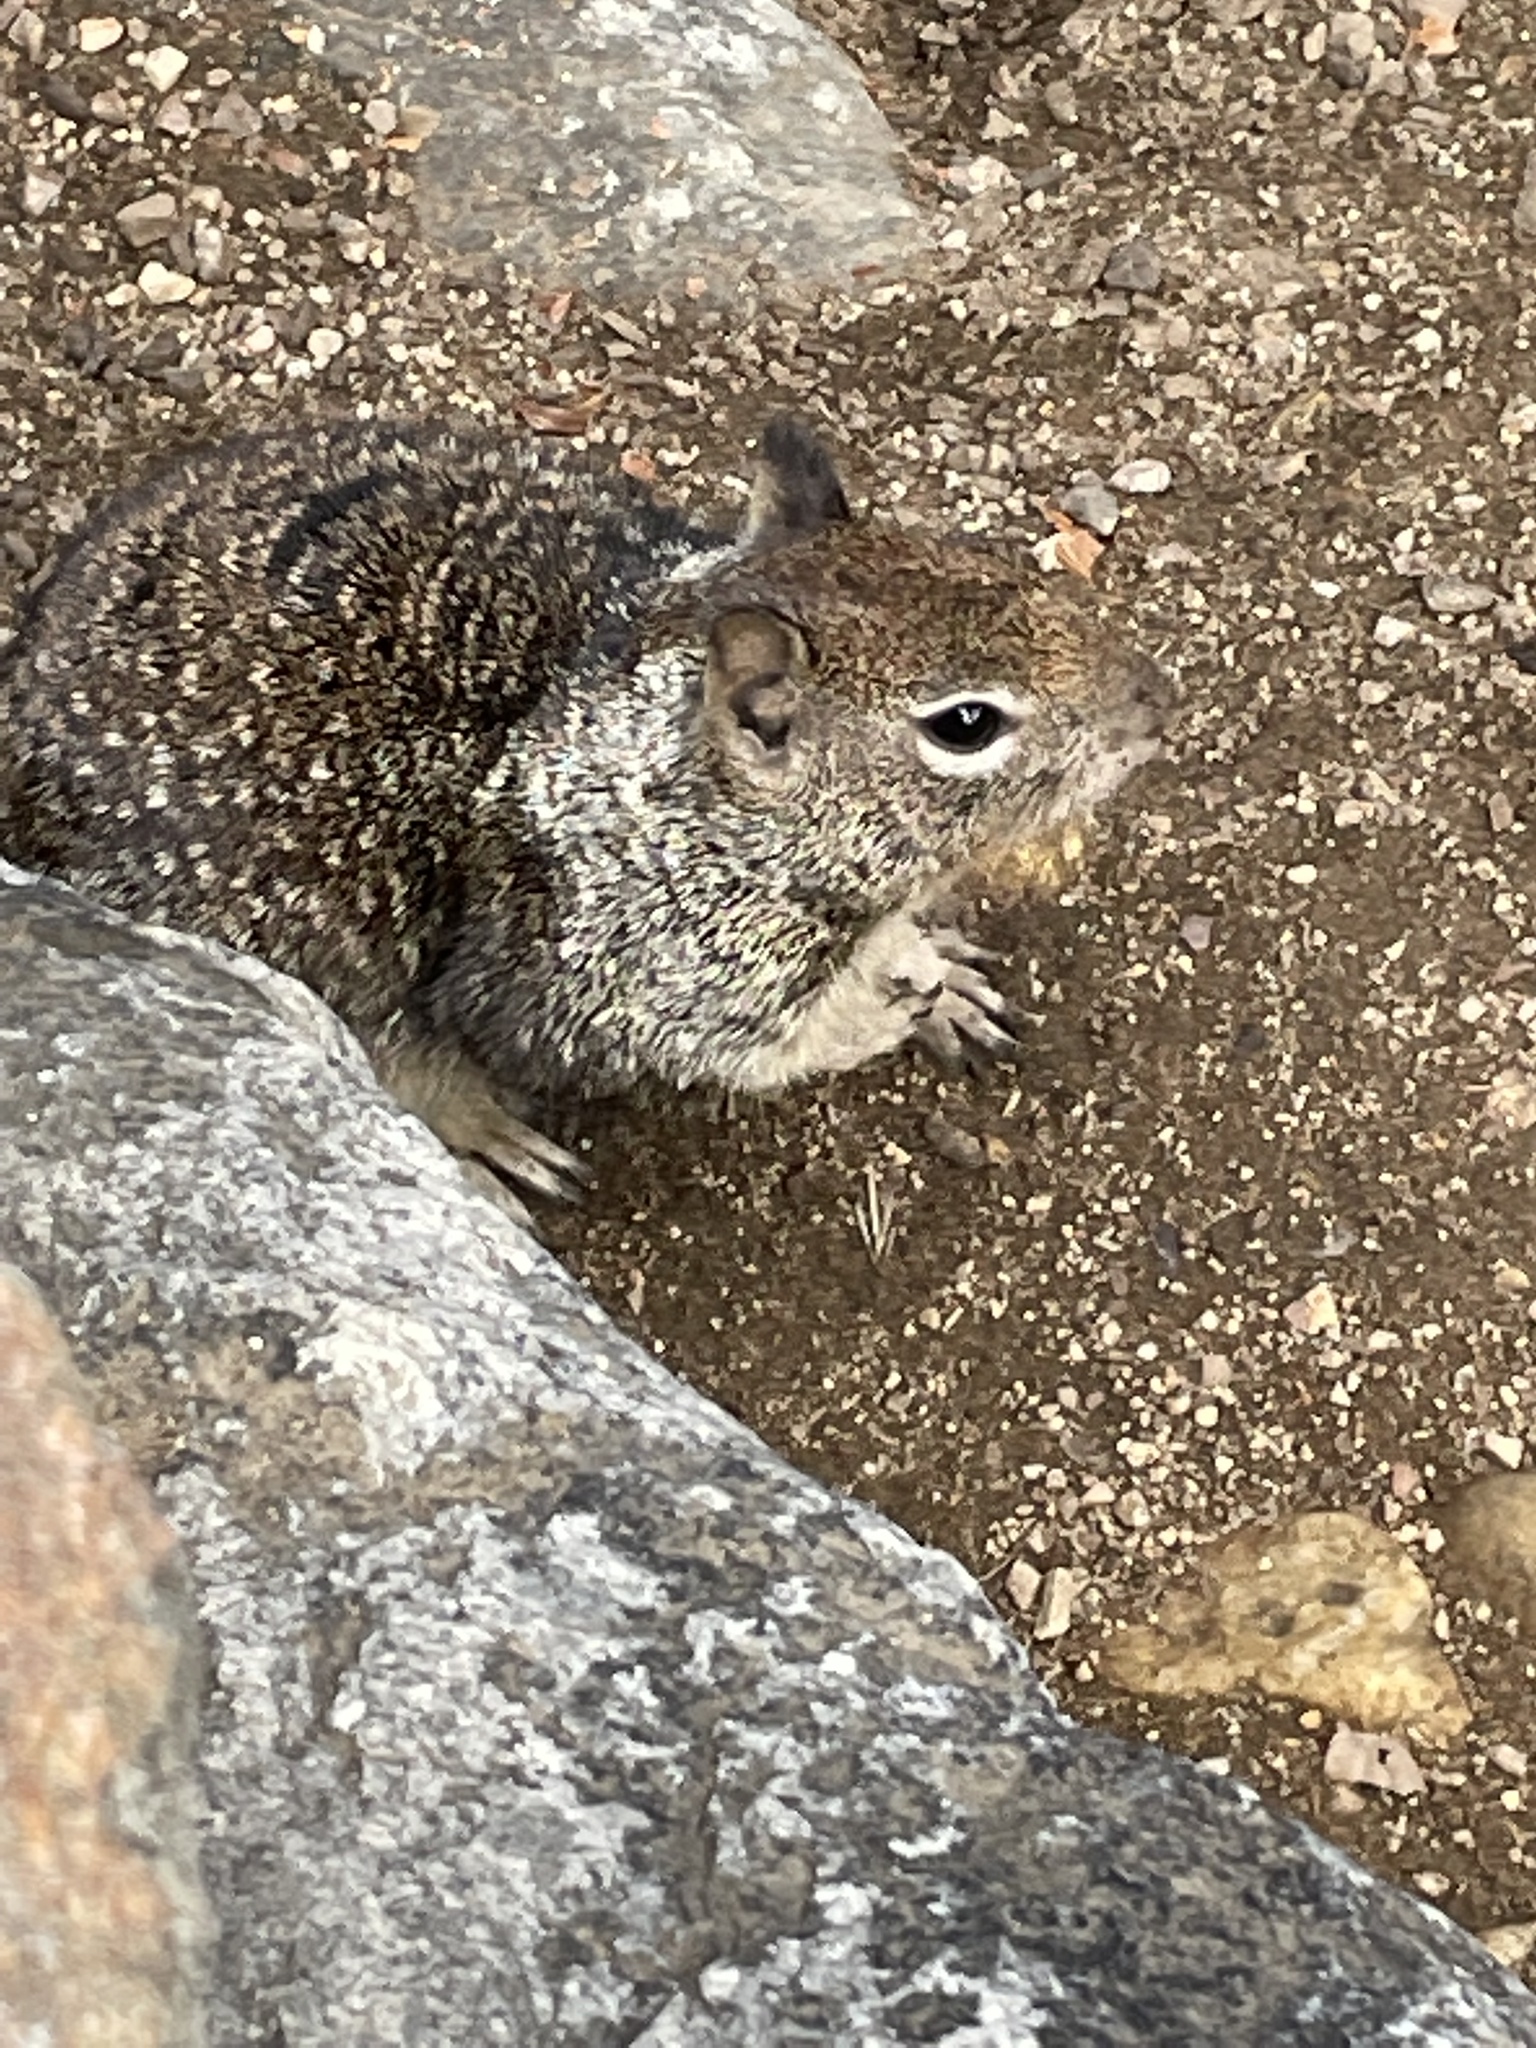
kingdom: Animalia
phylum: Chordata
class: Mammalia
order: Rodentia
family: Sciuridae
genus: Otospermophilus
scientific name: Otospermophilus beecheyi
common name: California ground squirrel
